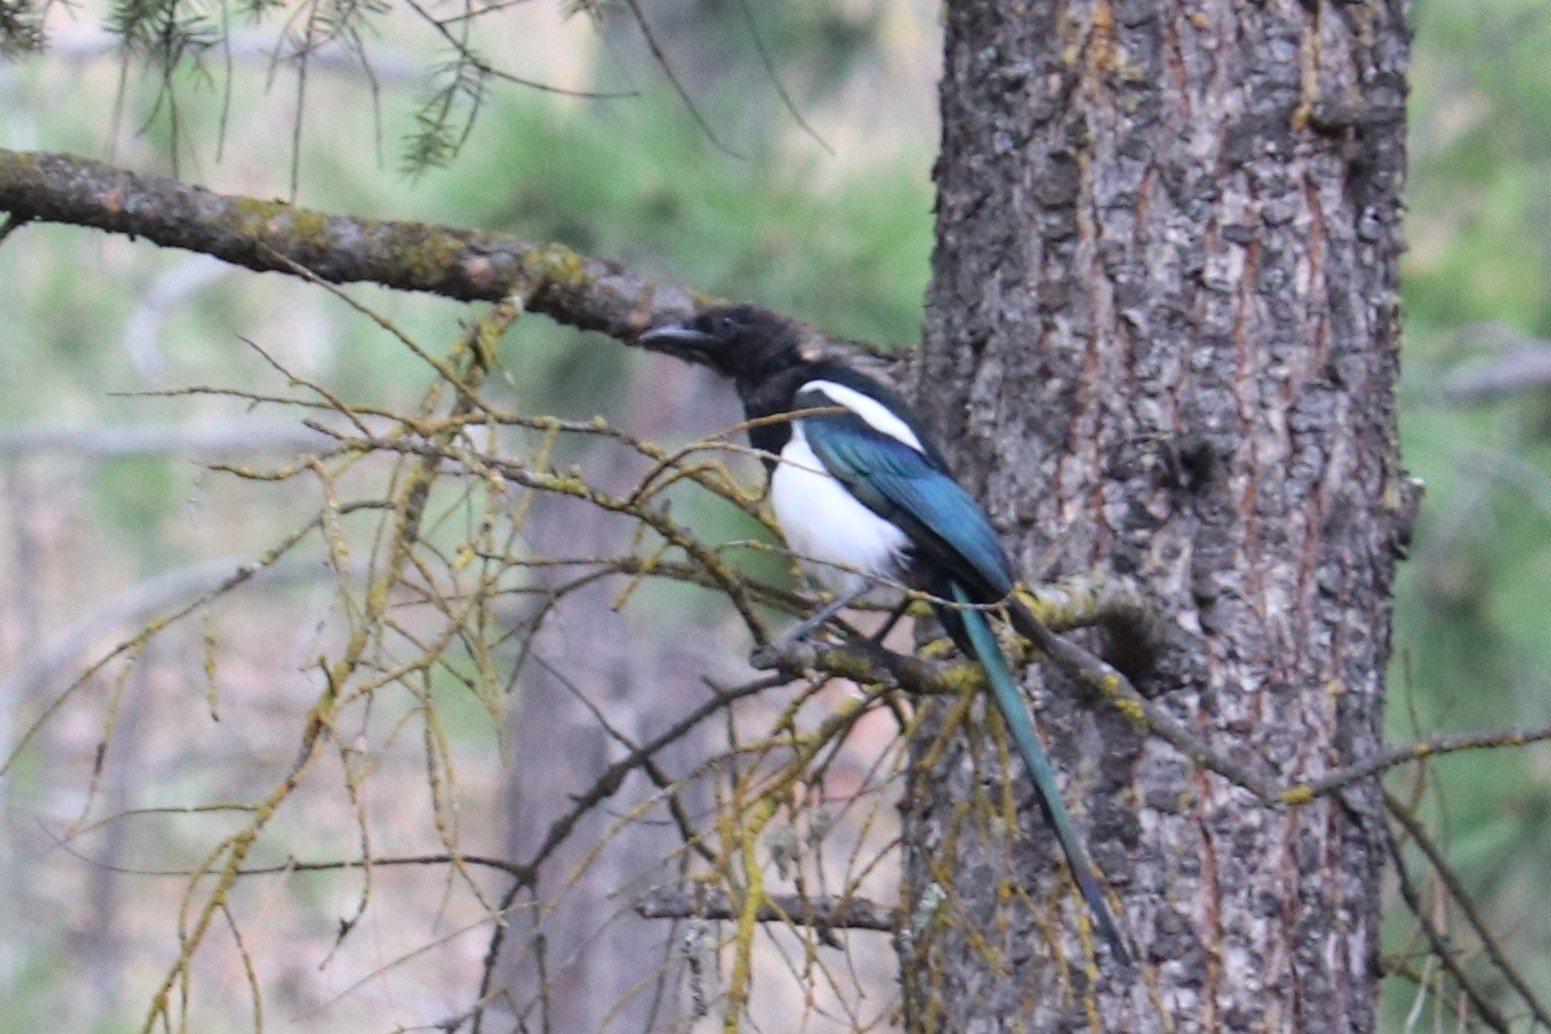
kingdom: Animalia
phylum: Chordata
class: Aves
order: Passeriformes
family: Corvidae
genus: Pica
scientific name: Pica hudsonia
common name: Black-billed magpie
